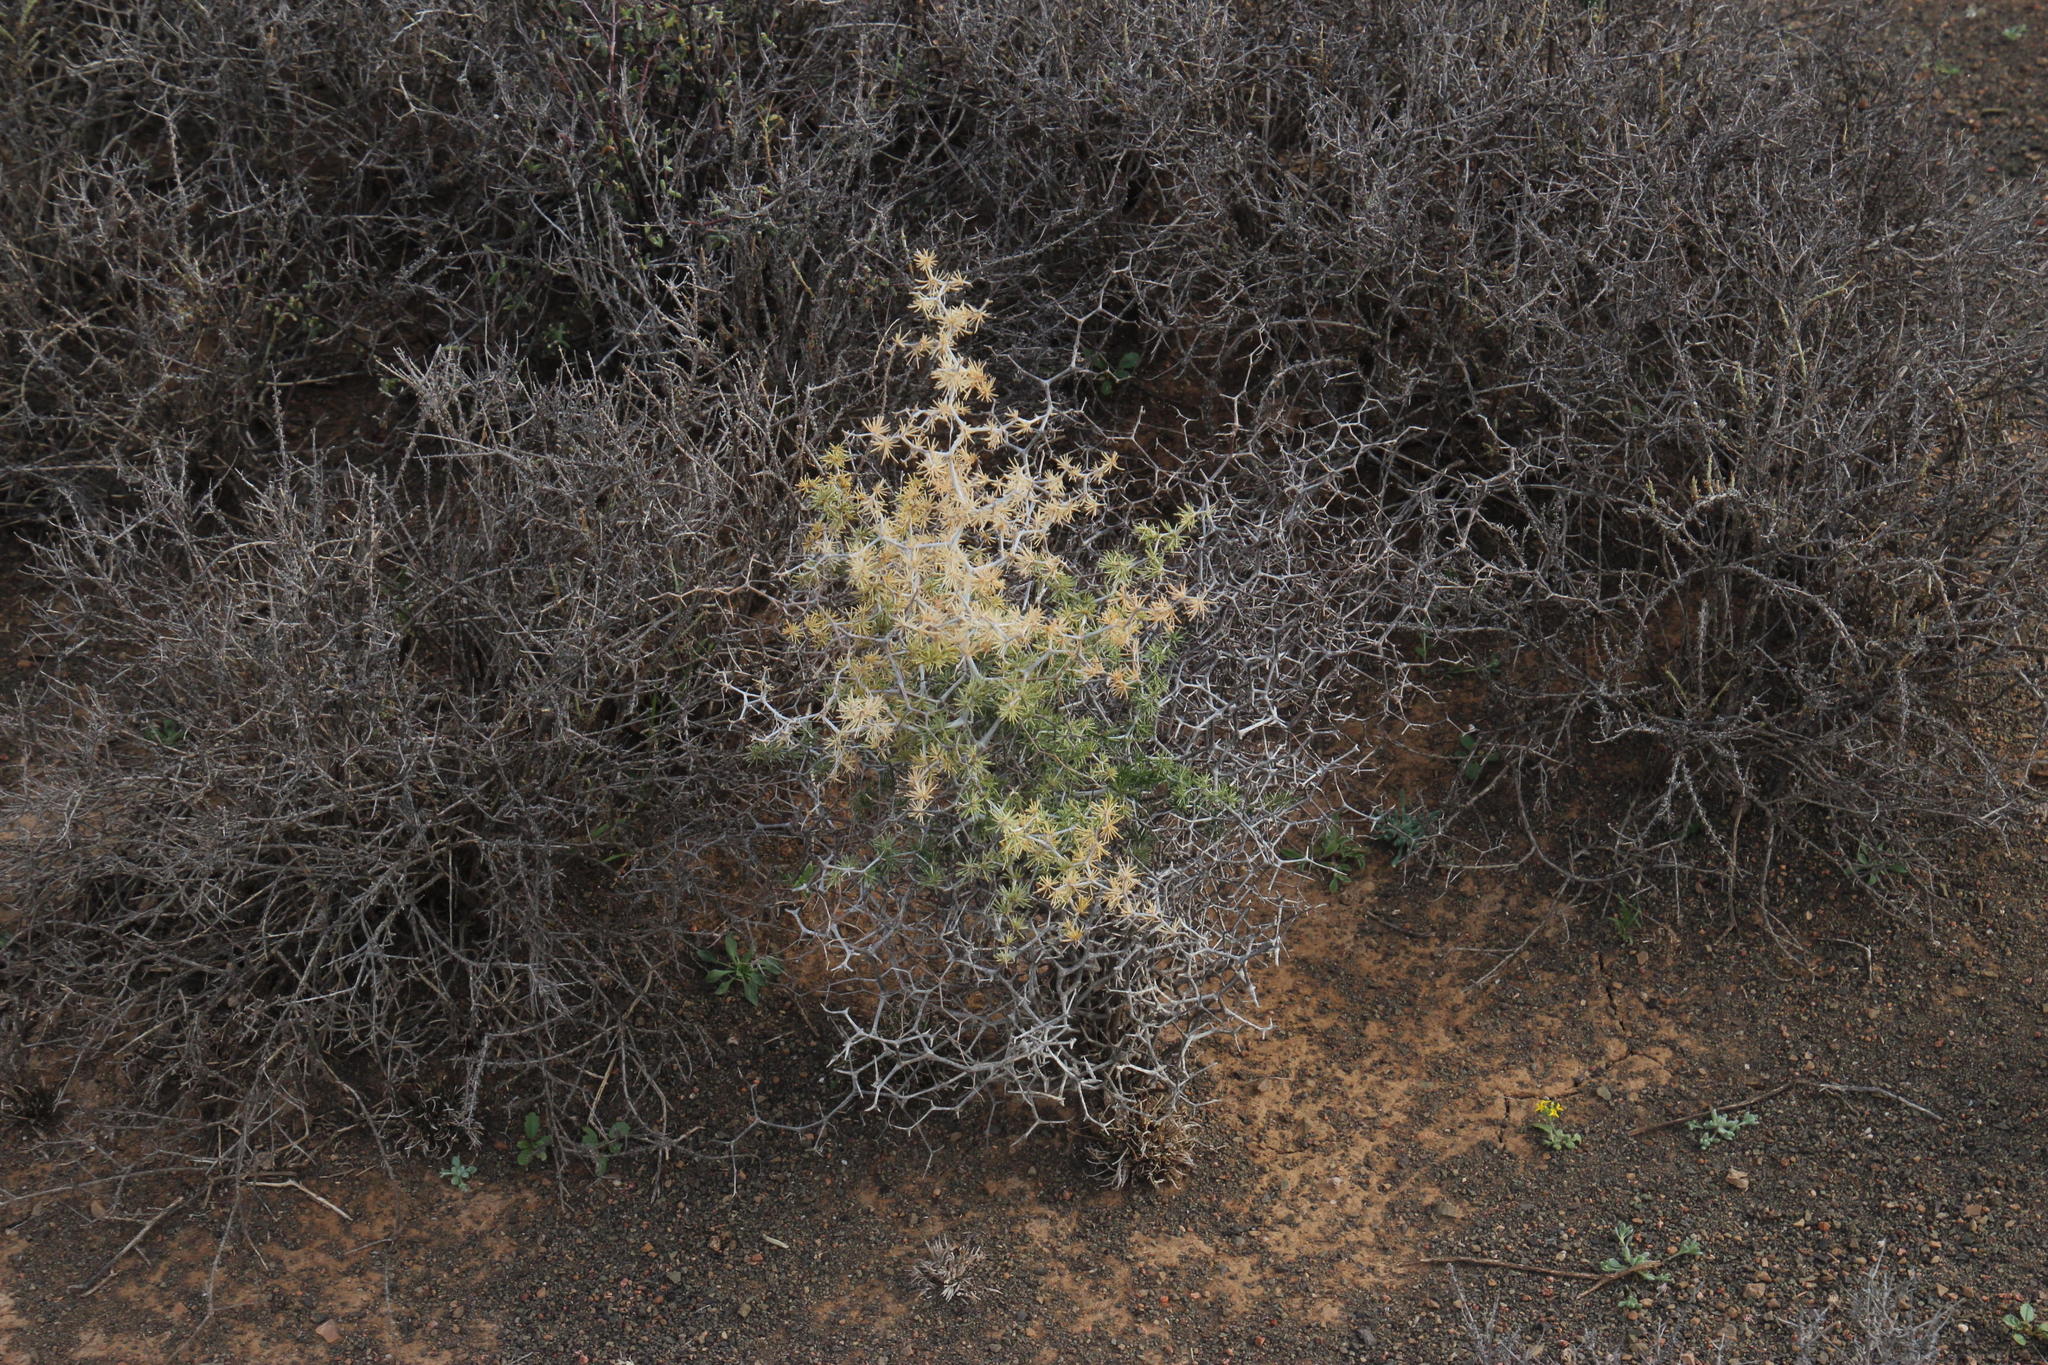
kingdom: Plantae
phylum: Tracheophyta
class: Liliopsida
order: Asparagales
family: Asparagaceae
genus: Asparagus
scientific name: Asparagus retrofractus
